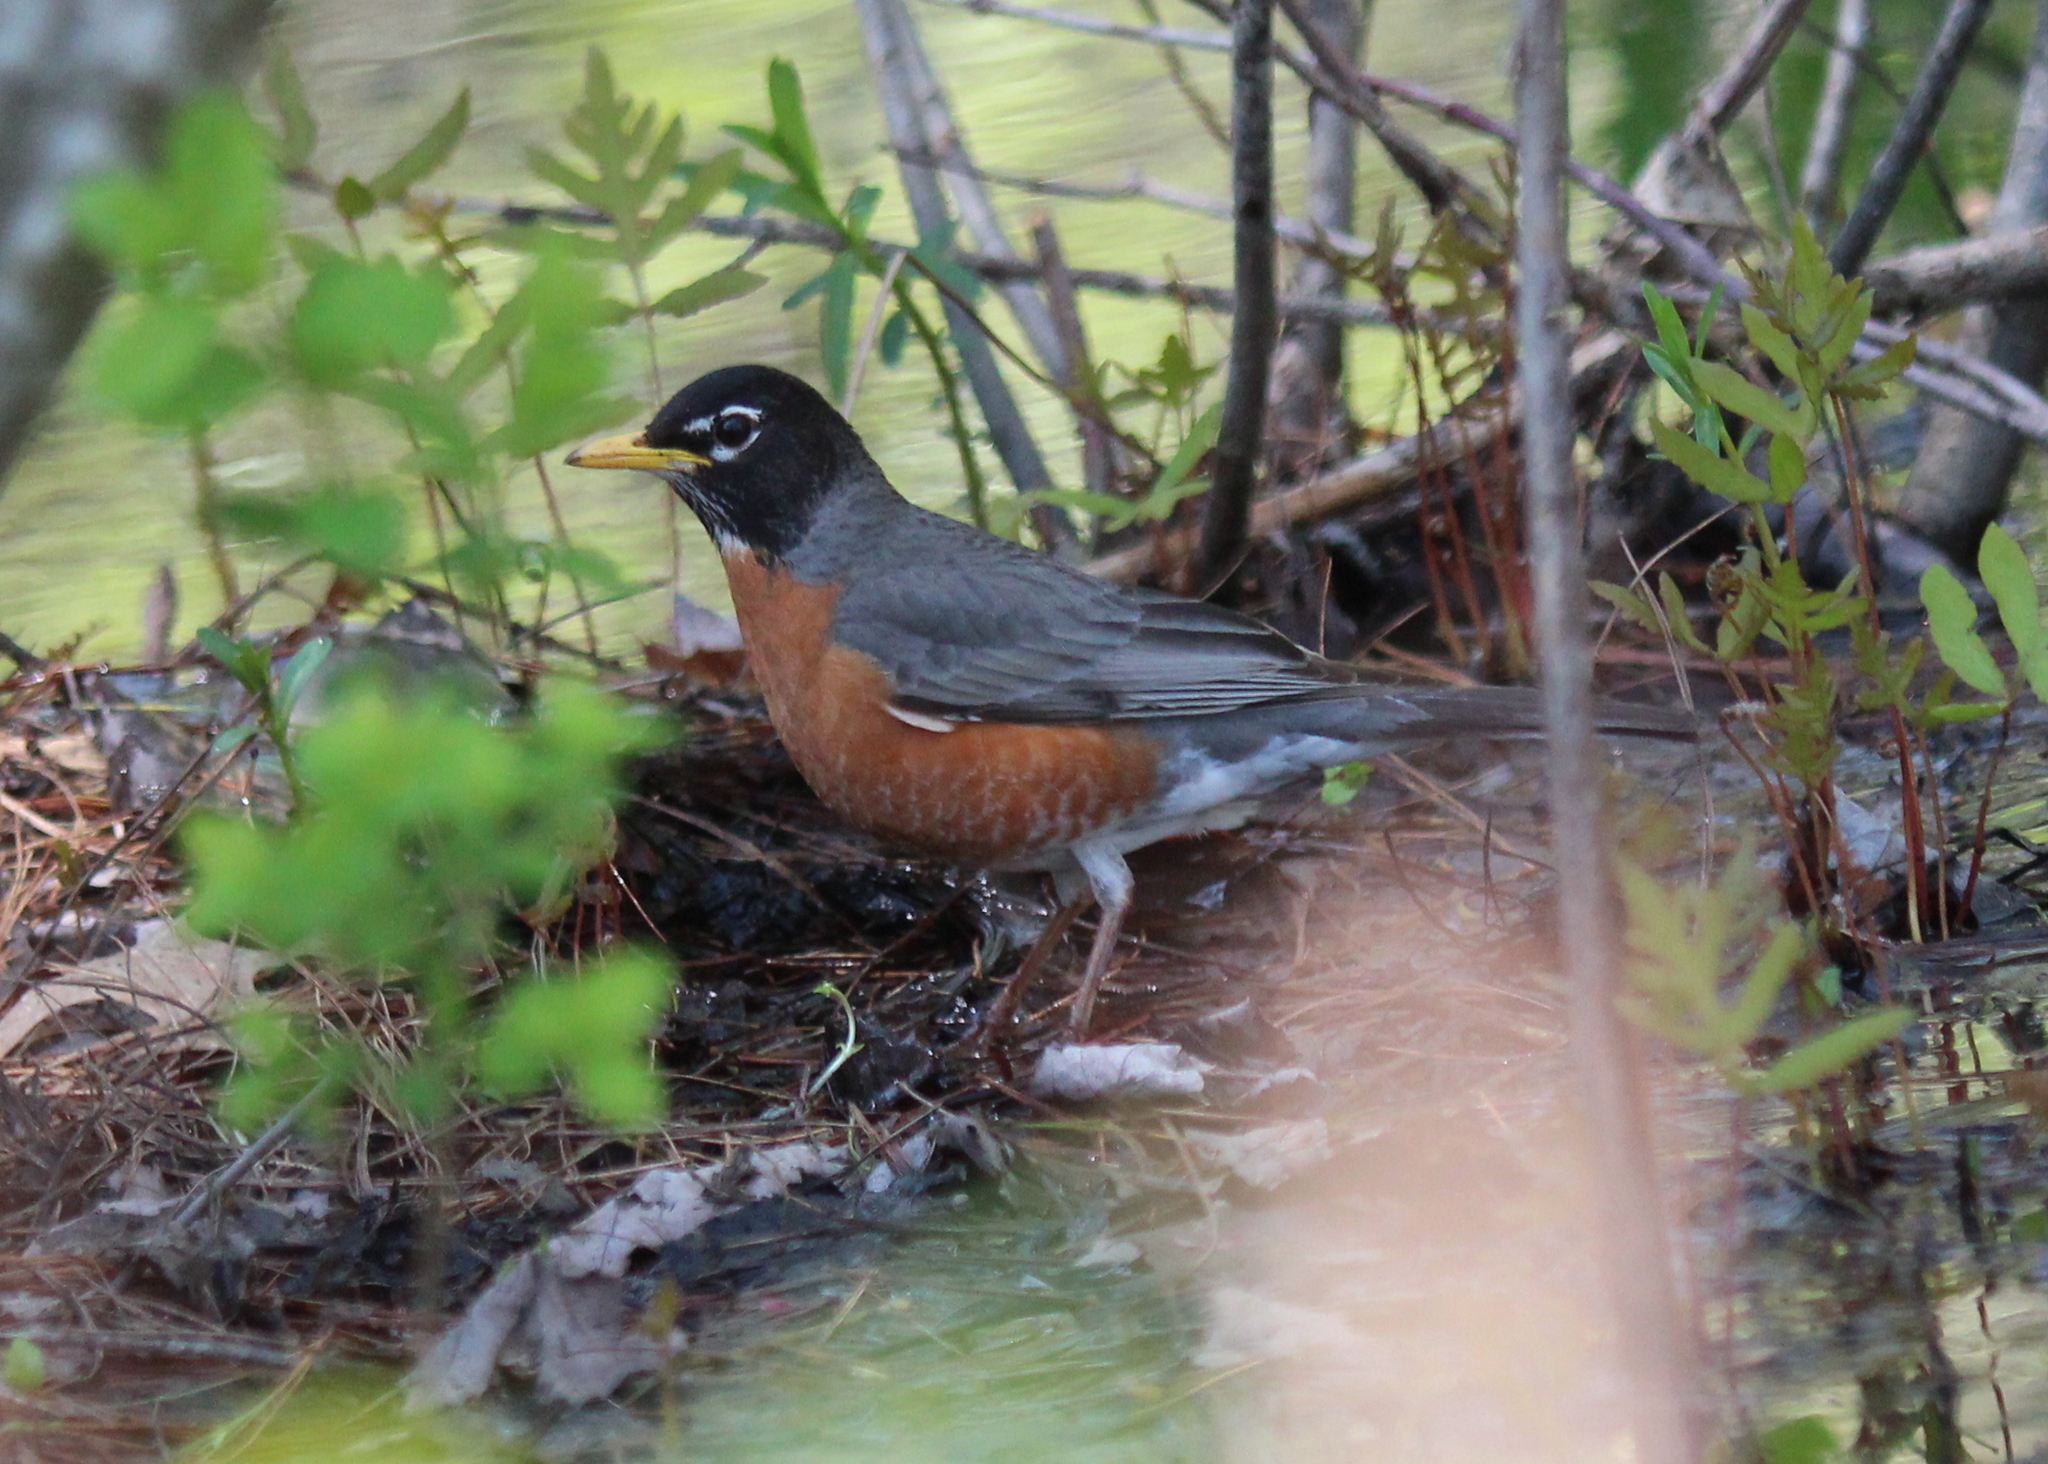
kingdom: Animalia
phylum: Chordata
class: Aves
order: Passeriformes
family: Turdidae
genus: Turdus
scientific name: Turdus migratorius
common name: American robin
